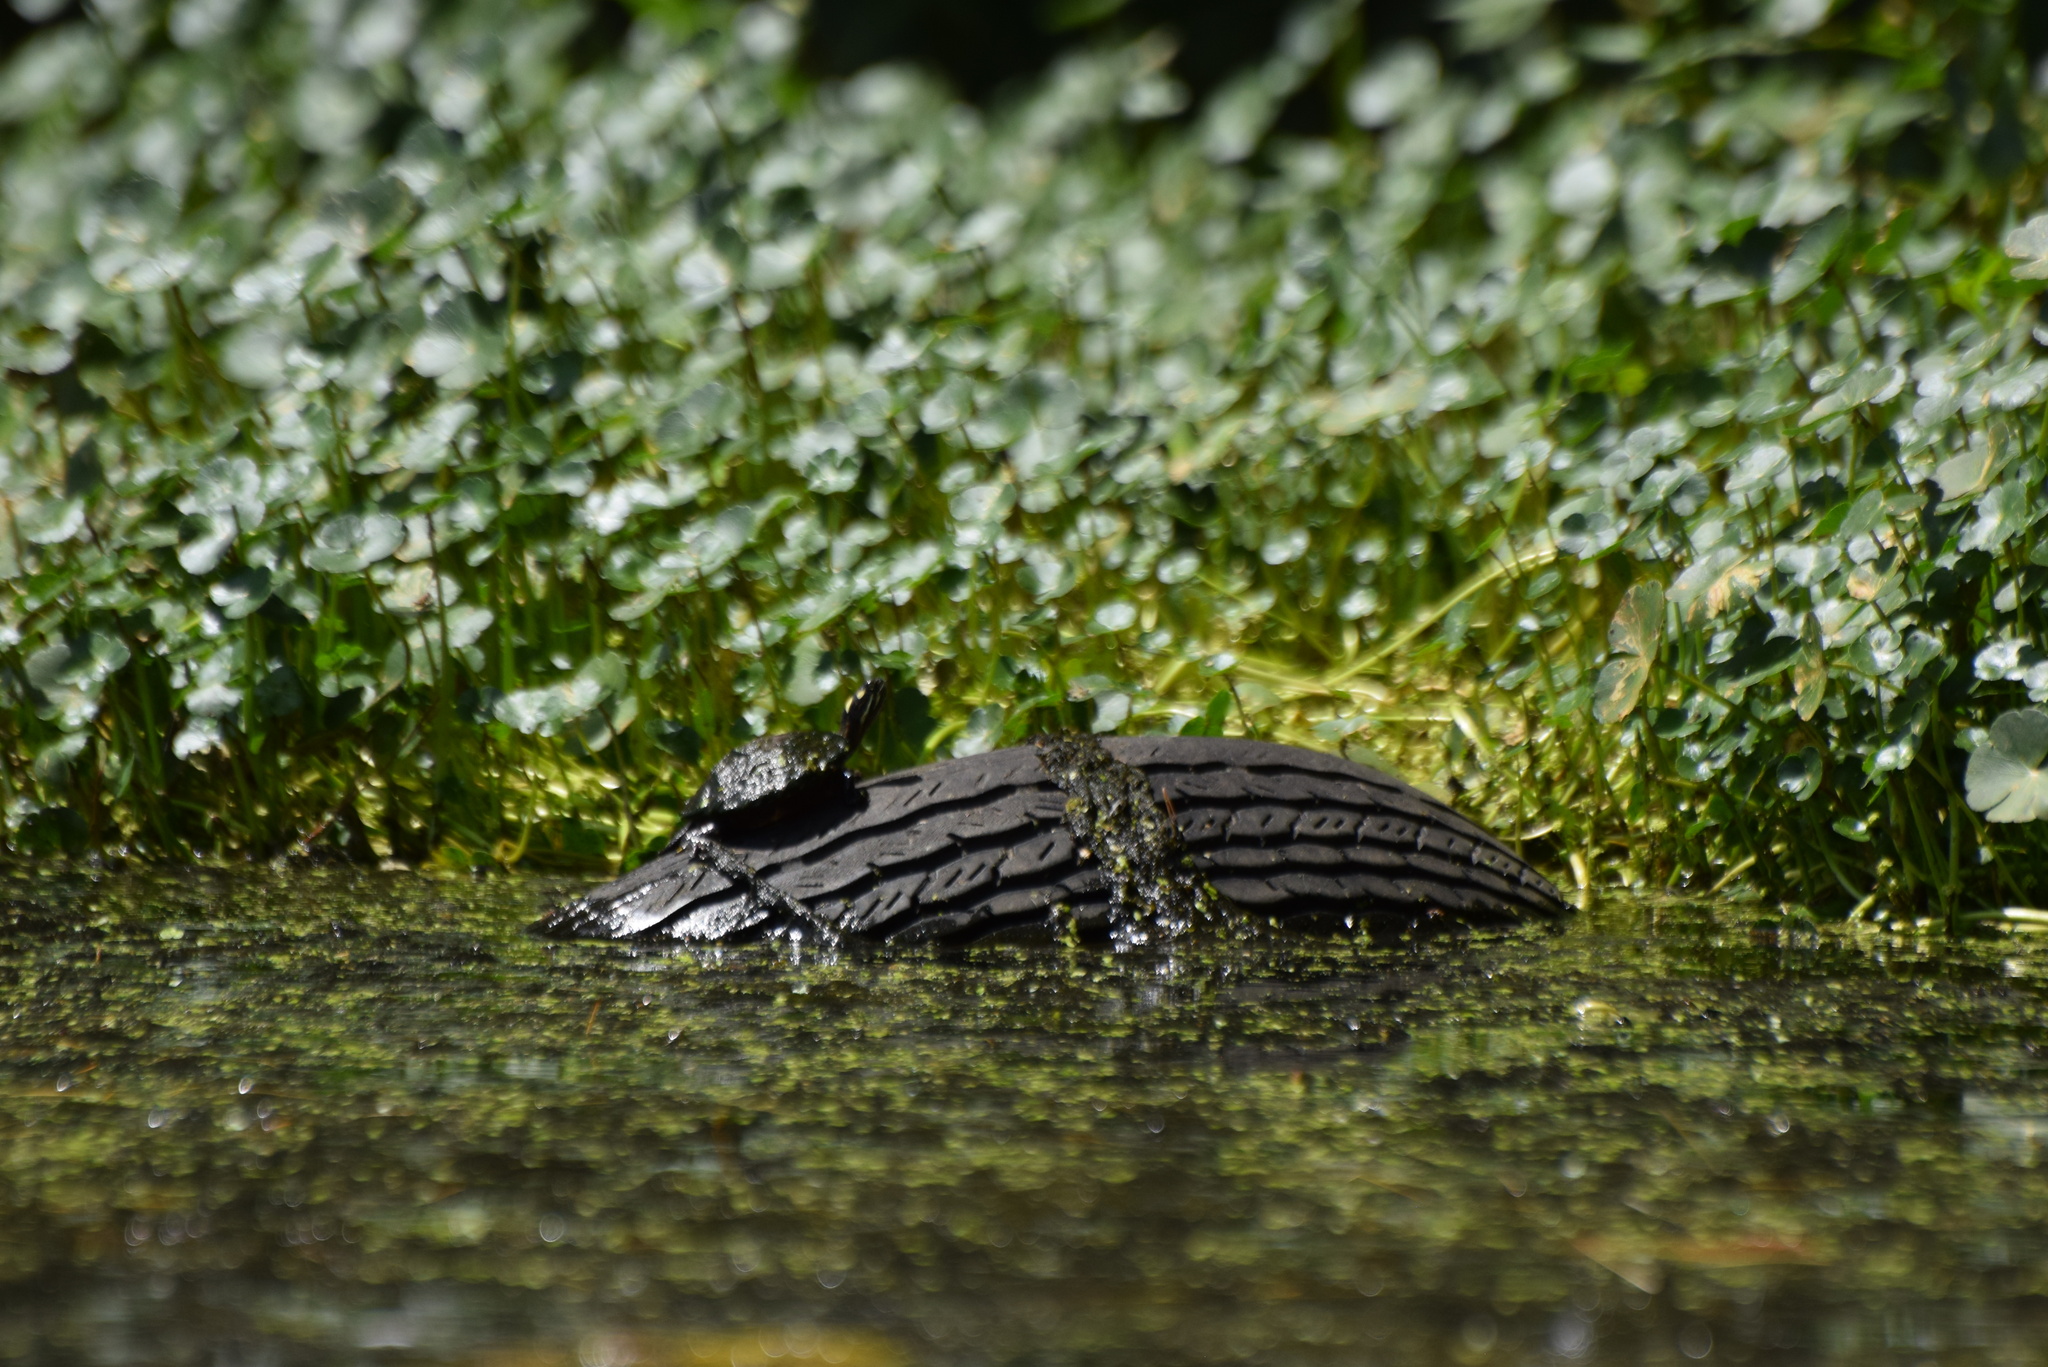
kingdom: Animalia
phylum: Chordata
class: Testudines
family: Emydidae
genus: Chrysemys
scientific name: Chrysemys picta
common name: Painted turtle
